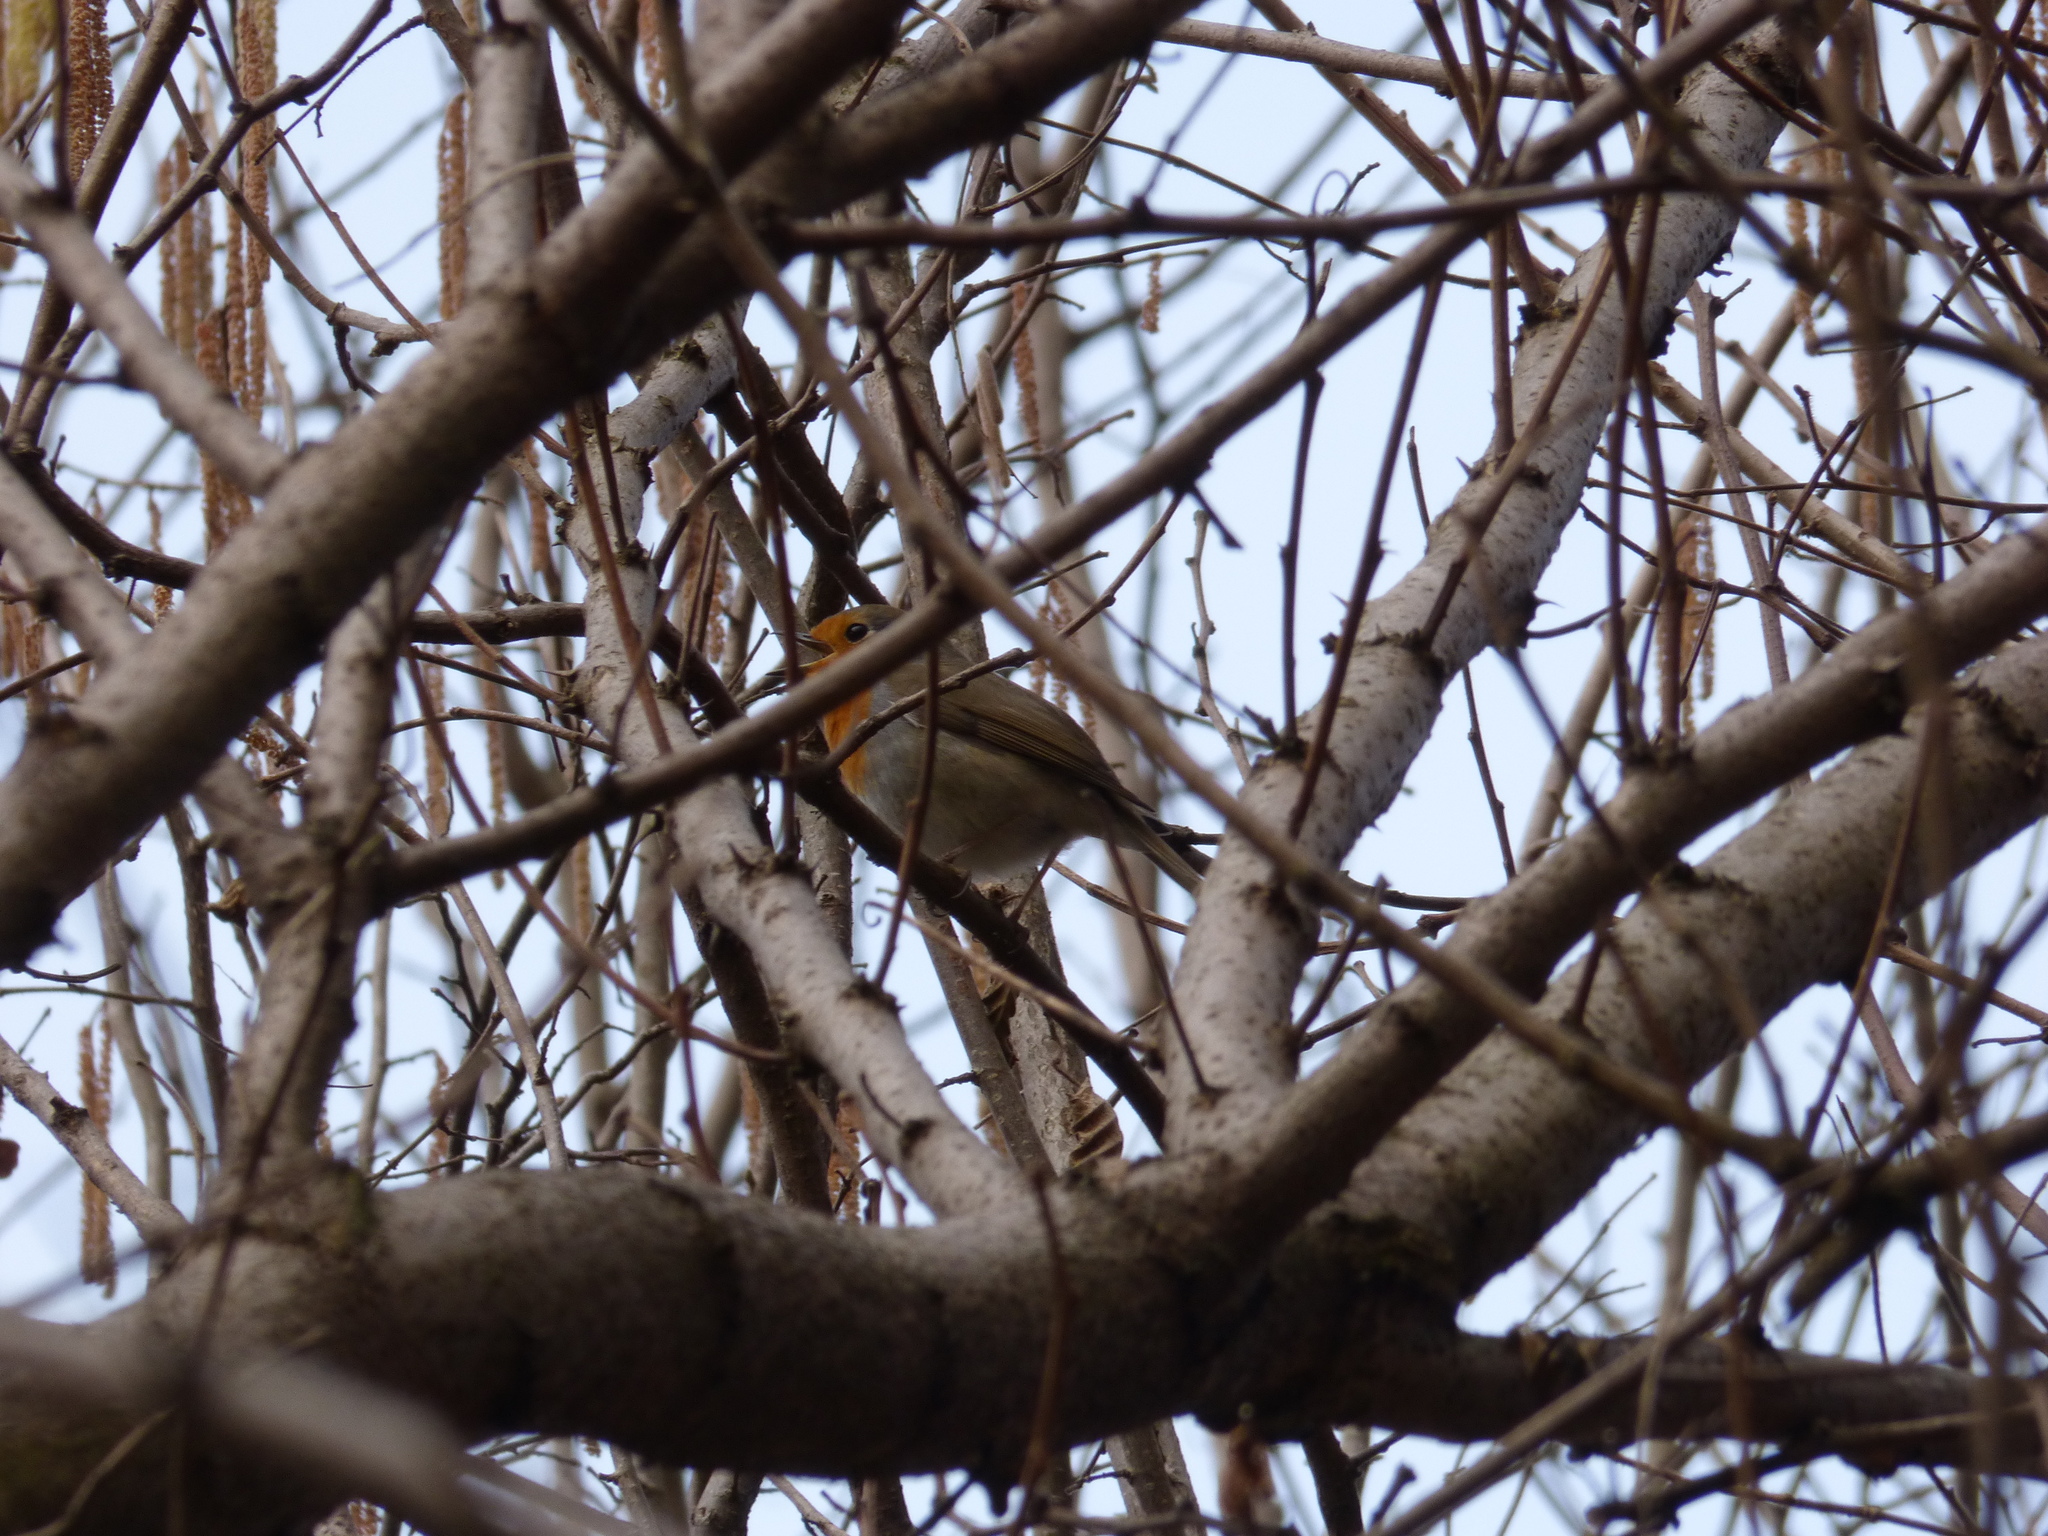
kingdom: Animalia
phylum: Chordata
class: Aves
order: Passeriformes
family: Muscicapidae
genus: Erithacus
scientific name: Erithacus rubecula
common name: European robin
